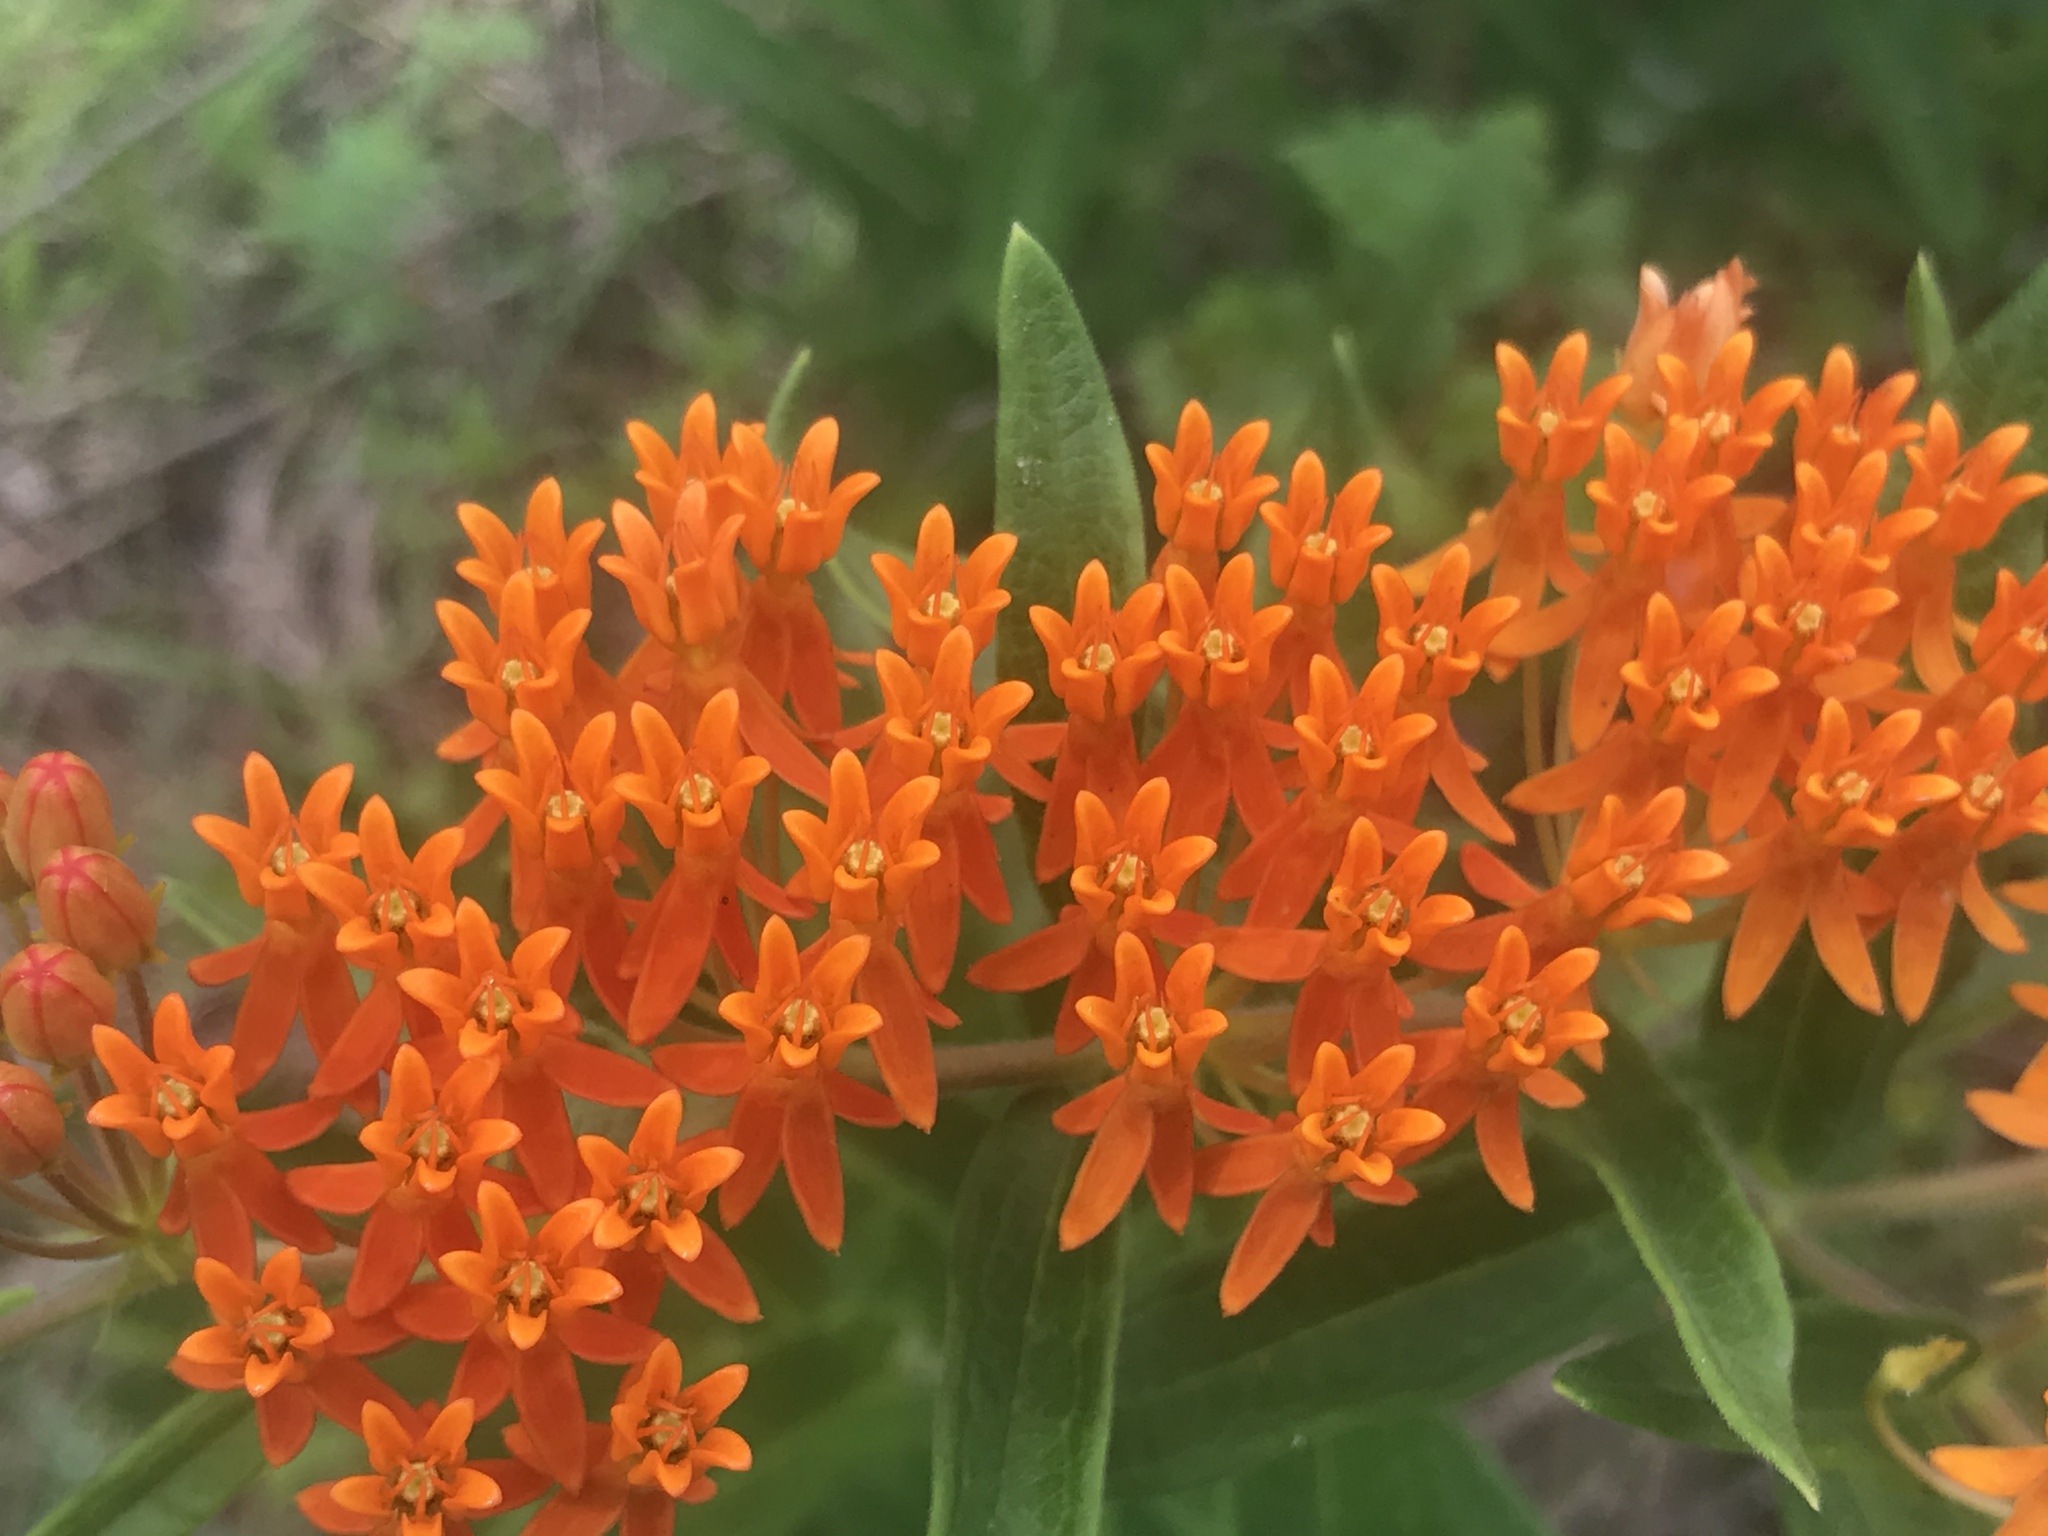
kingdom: Plantae
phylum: Tracheophyta
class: Magnoliopsida
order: Gentianales
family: Apocynaceae
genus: Asclepias
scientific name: Asclepias tuberosa
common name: Butterfly milkweed
